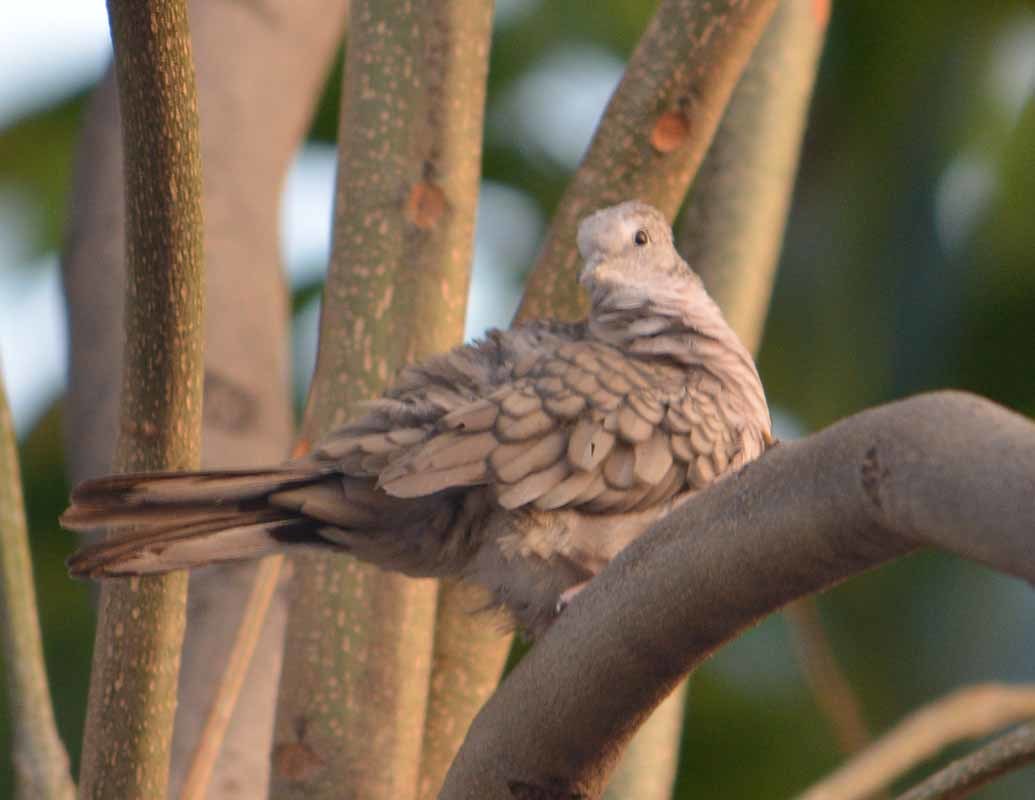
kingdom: Animalia
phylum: Chordata
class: Aves
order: Columbiformes
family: Columbidae
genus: Columbina
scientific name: Columbina inca
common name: Inca dove
